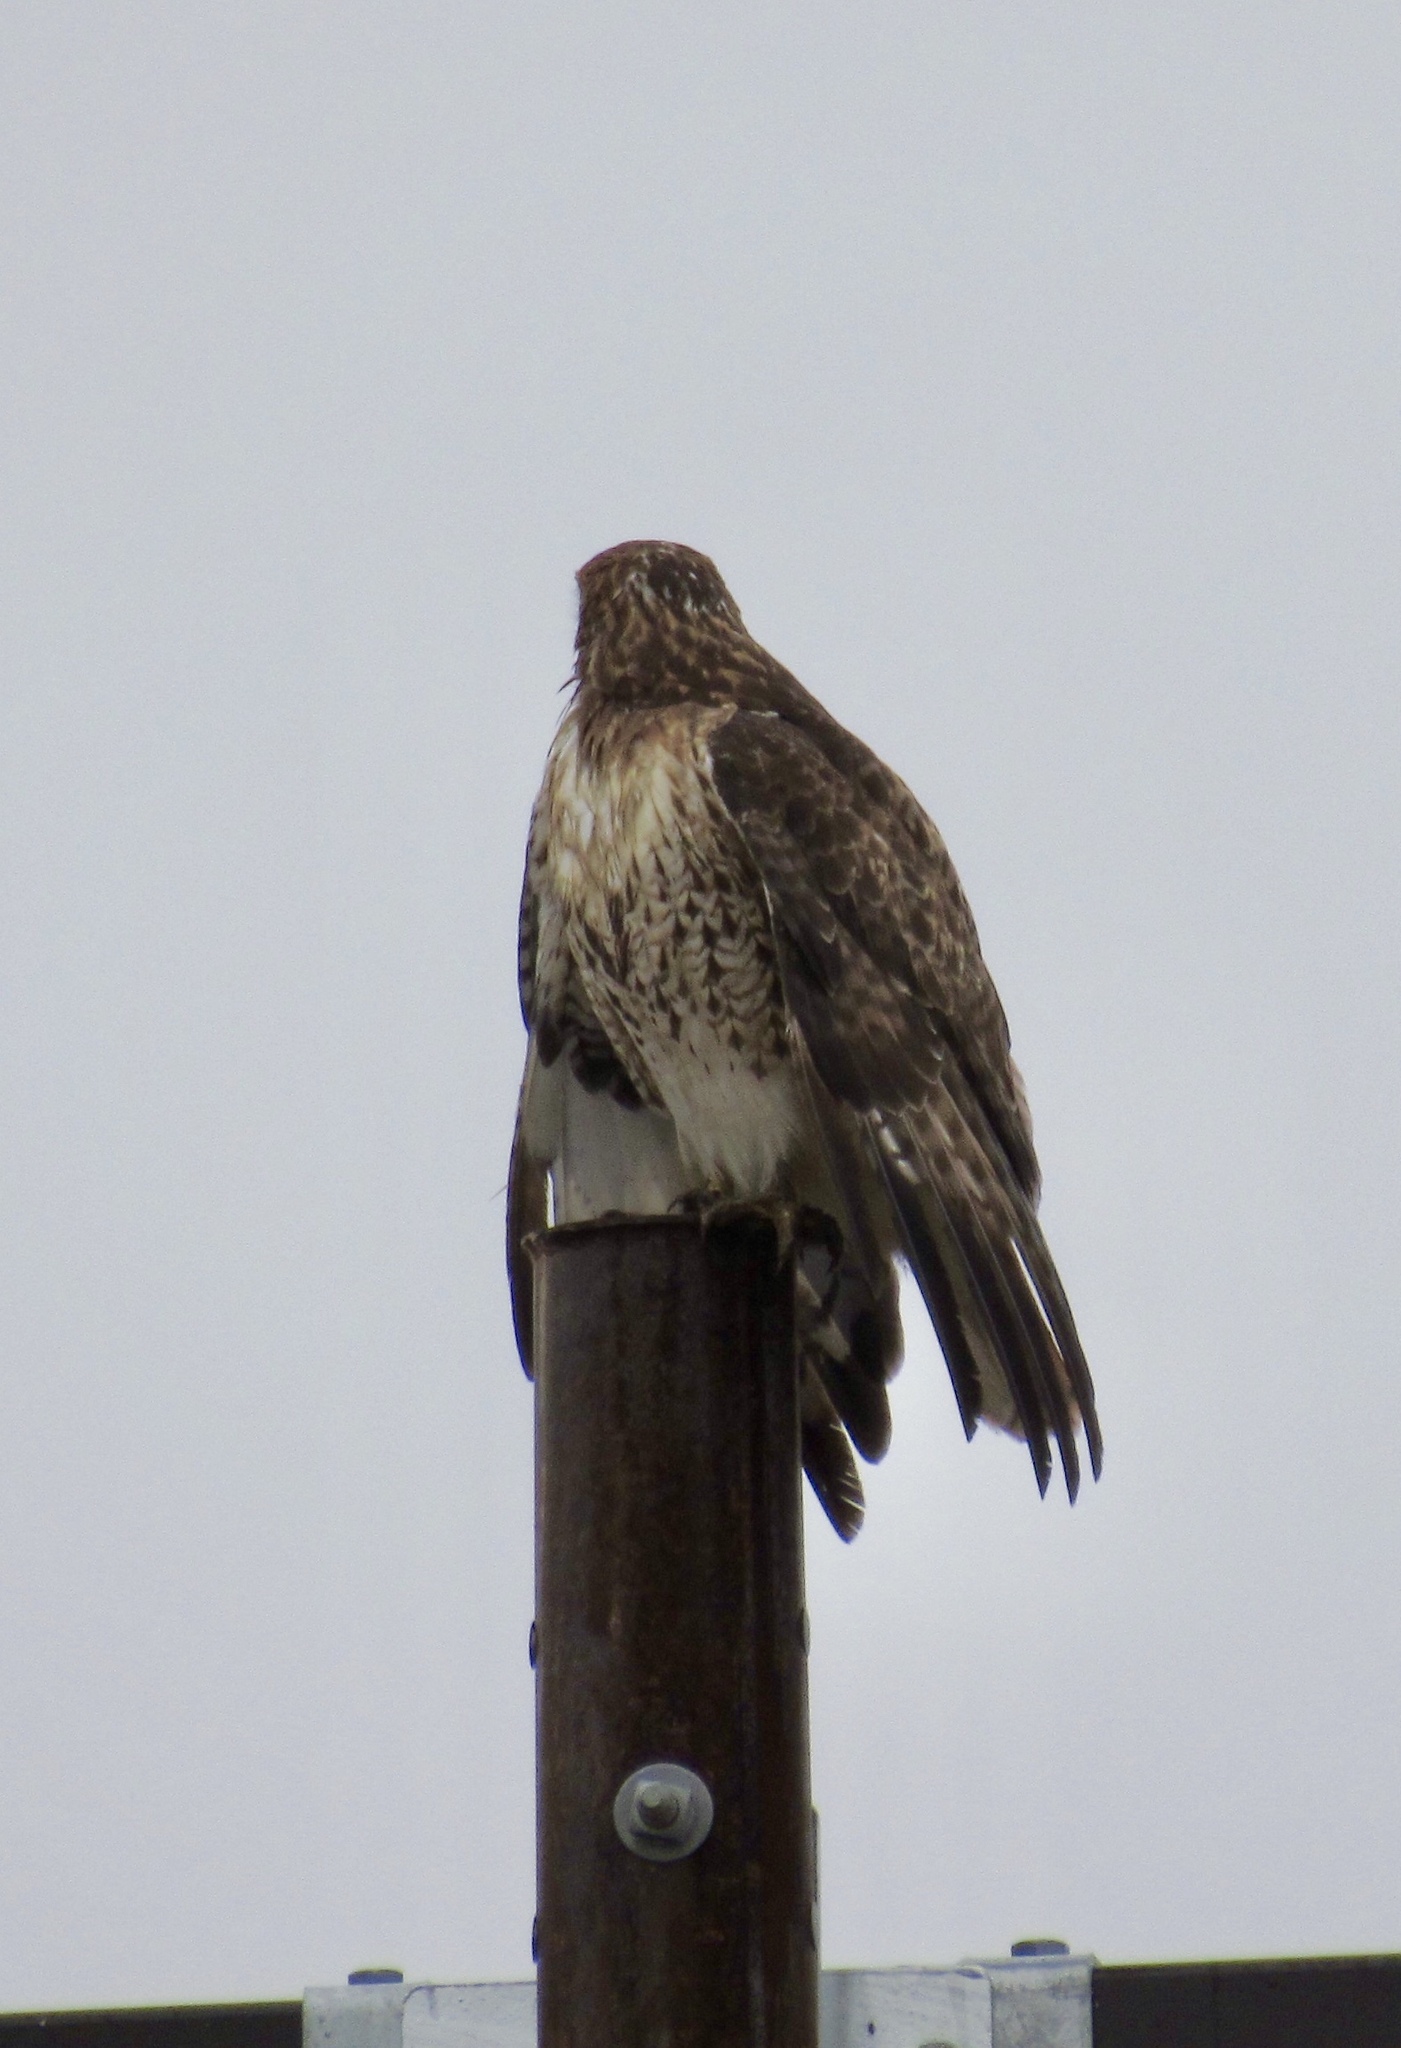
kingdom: Animalia
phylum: Chordata
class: Aves
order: Accipitriformes
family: Accipitridae
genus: Buteo
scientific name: Buteo jamaicensis
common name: Red-tailed hawk
